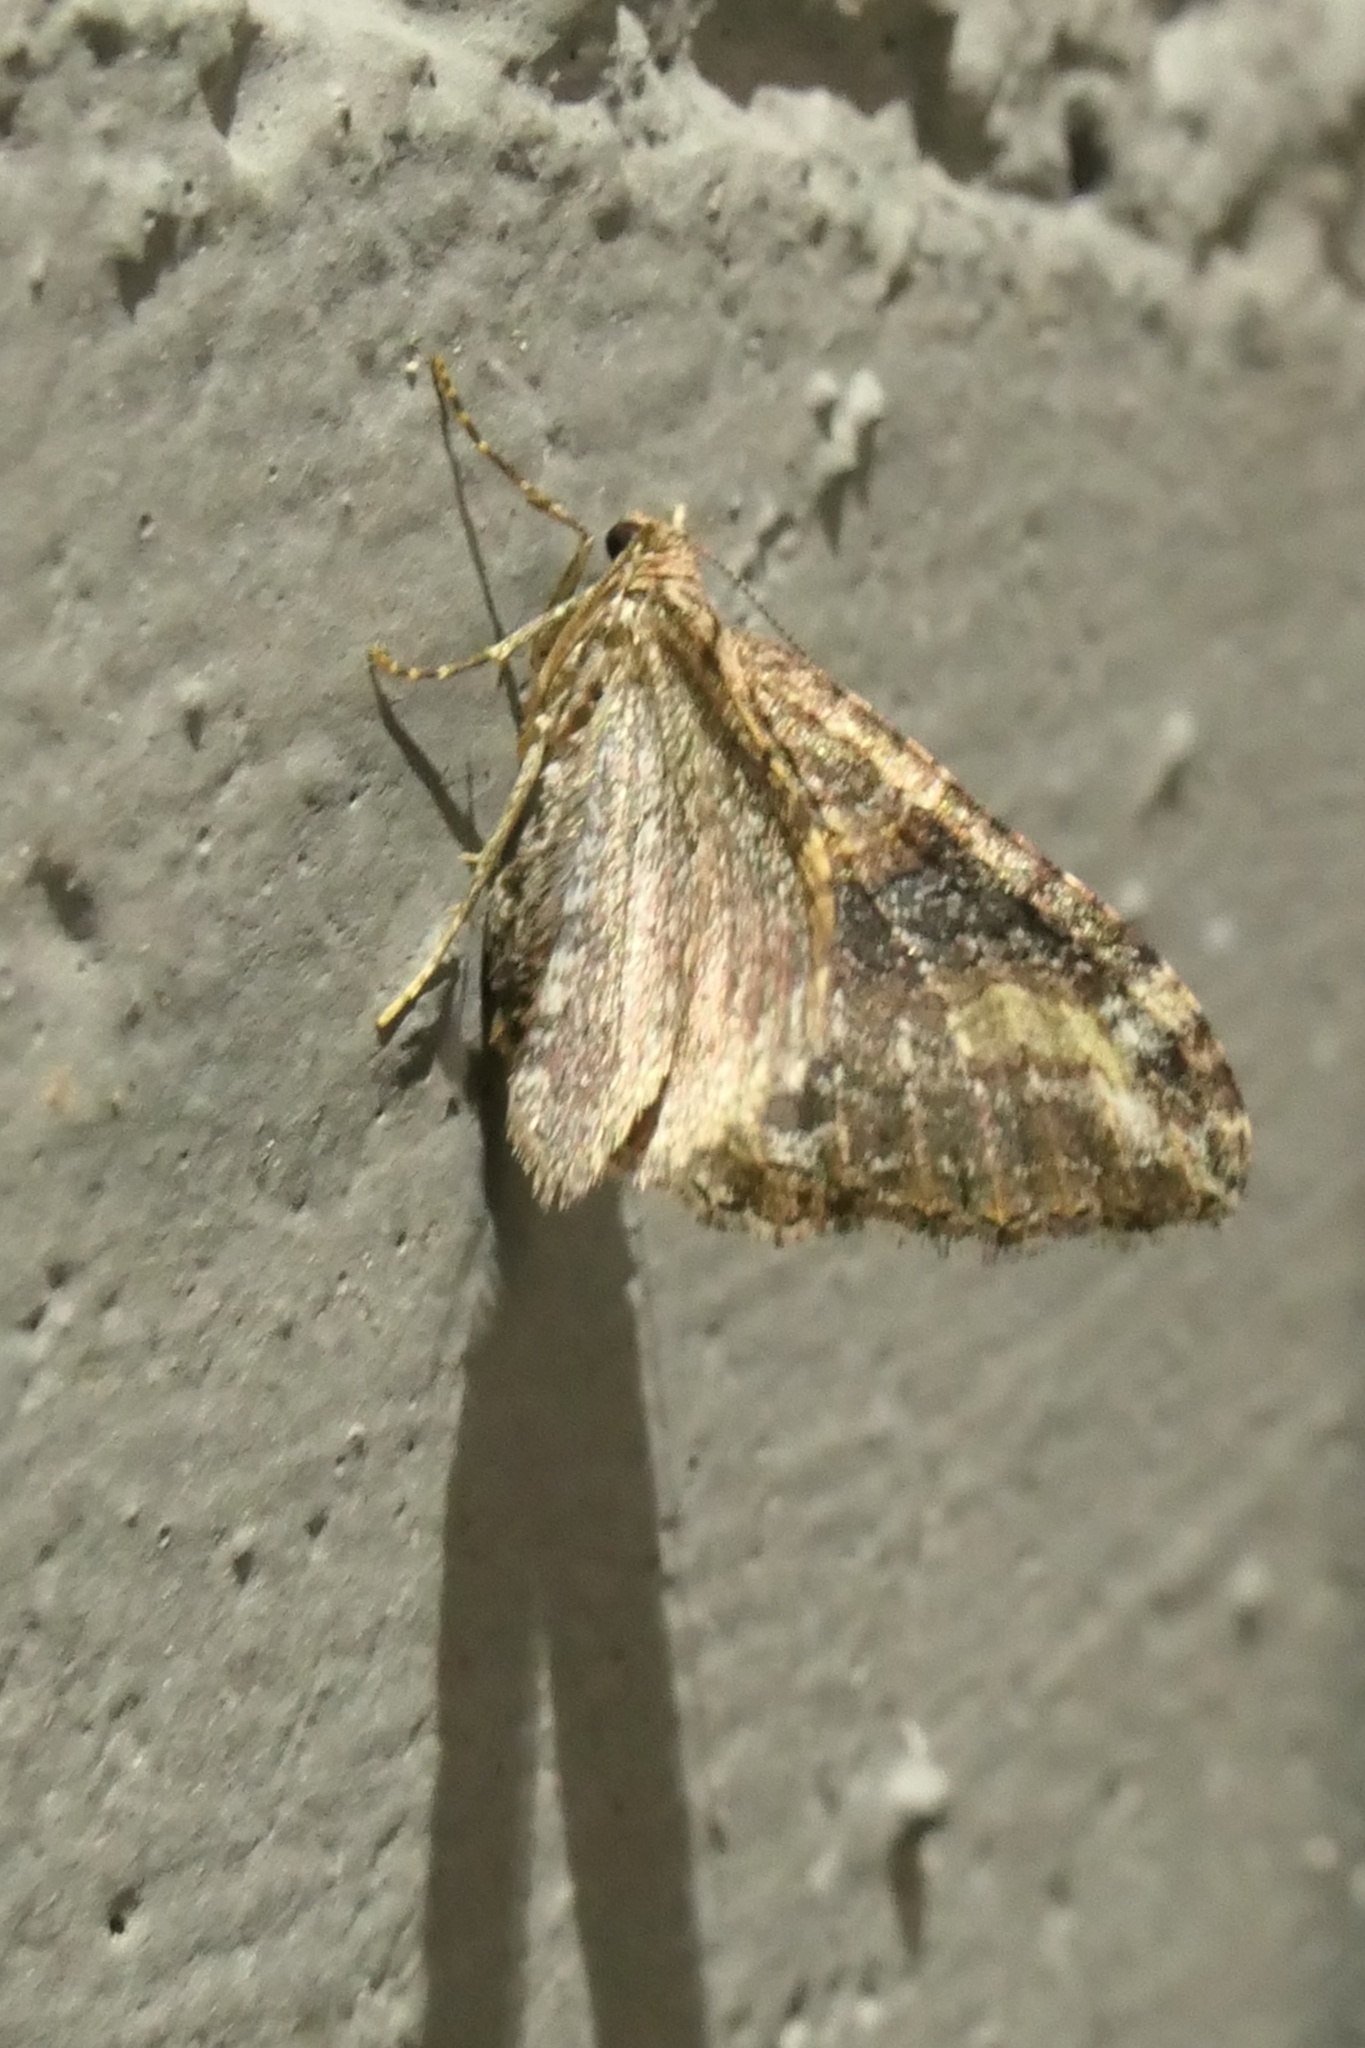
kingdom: Animalia
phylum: Arthropoda
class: Insecta
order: Lepidoptera
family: Geometridae
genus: Epyaxa
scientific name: Epyaxa lucidata
